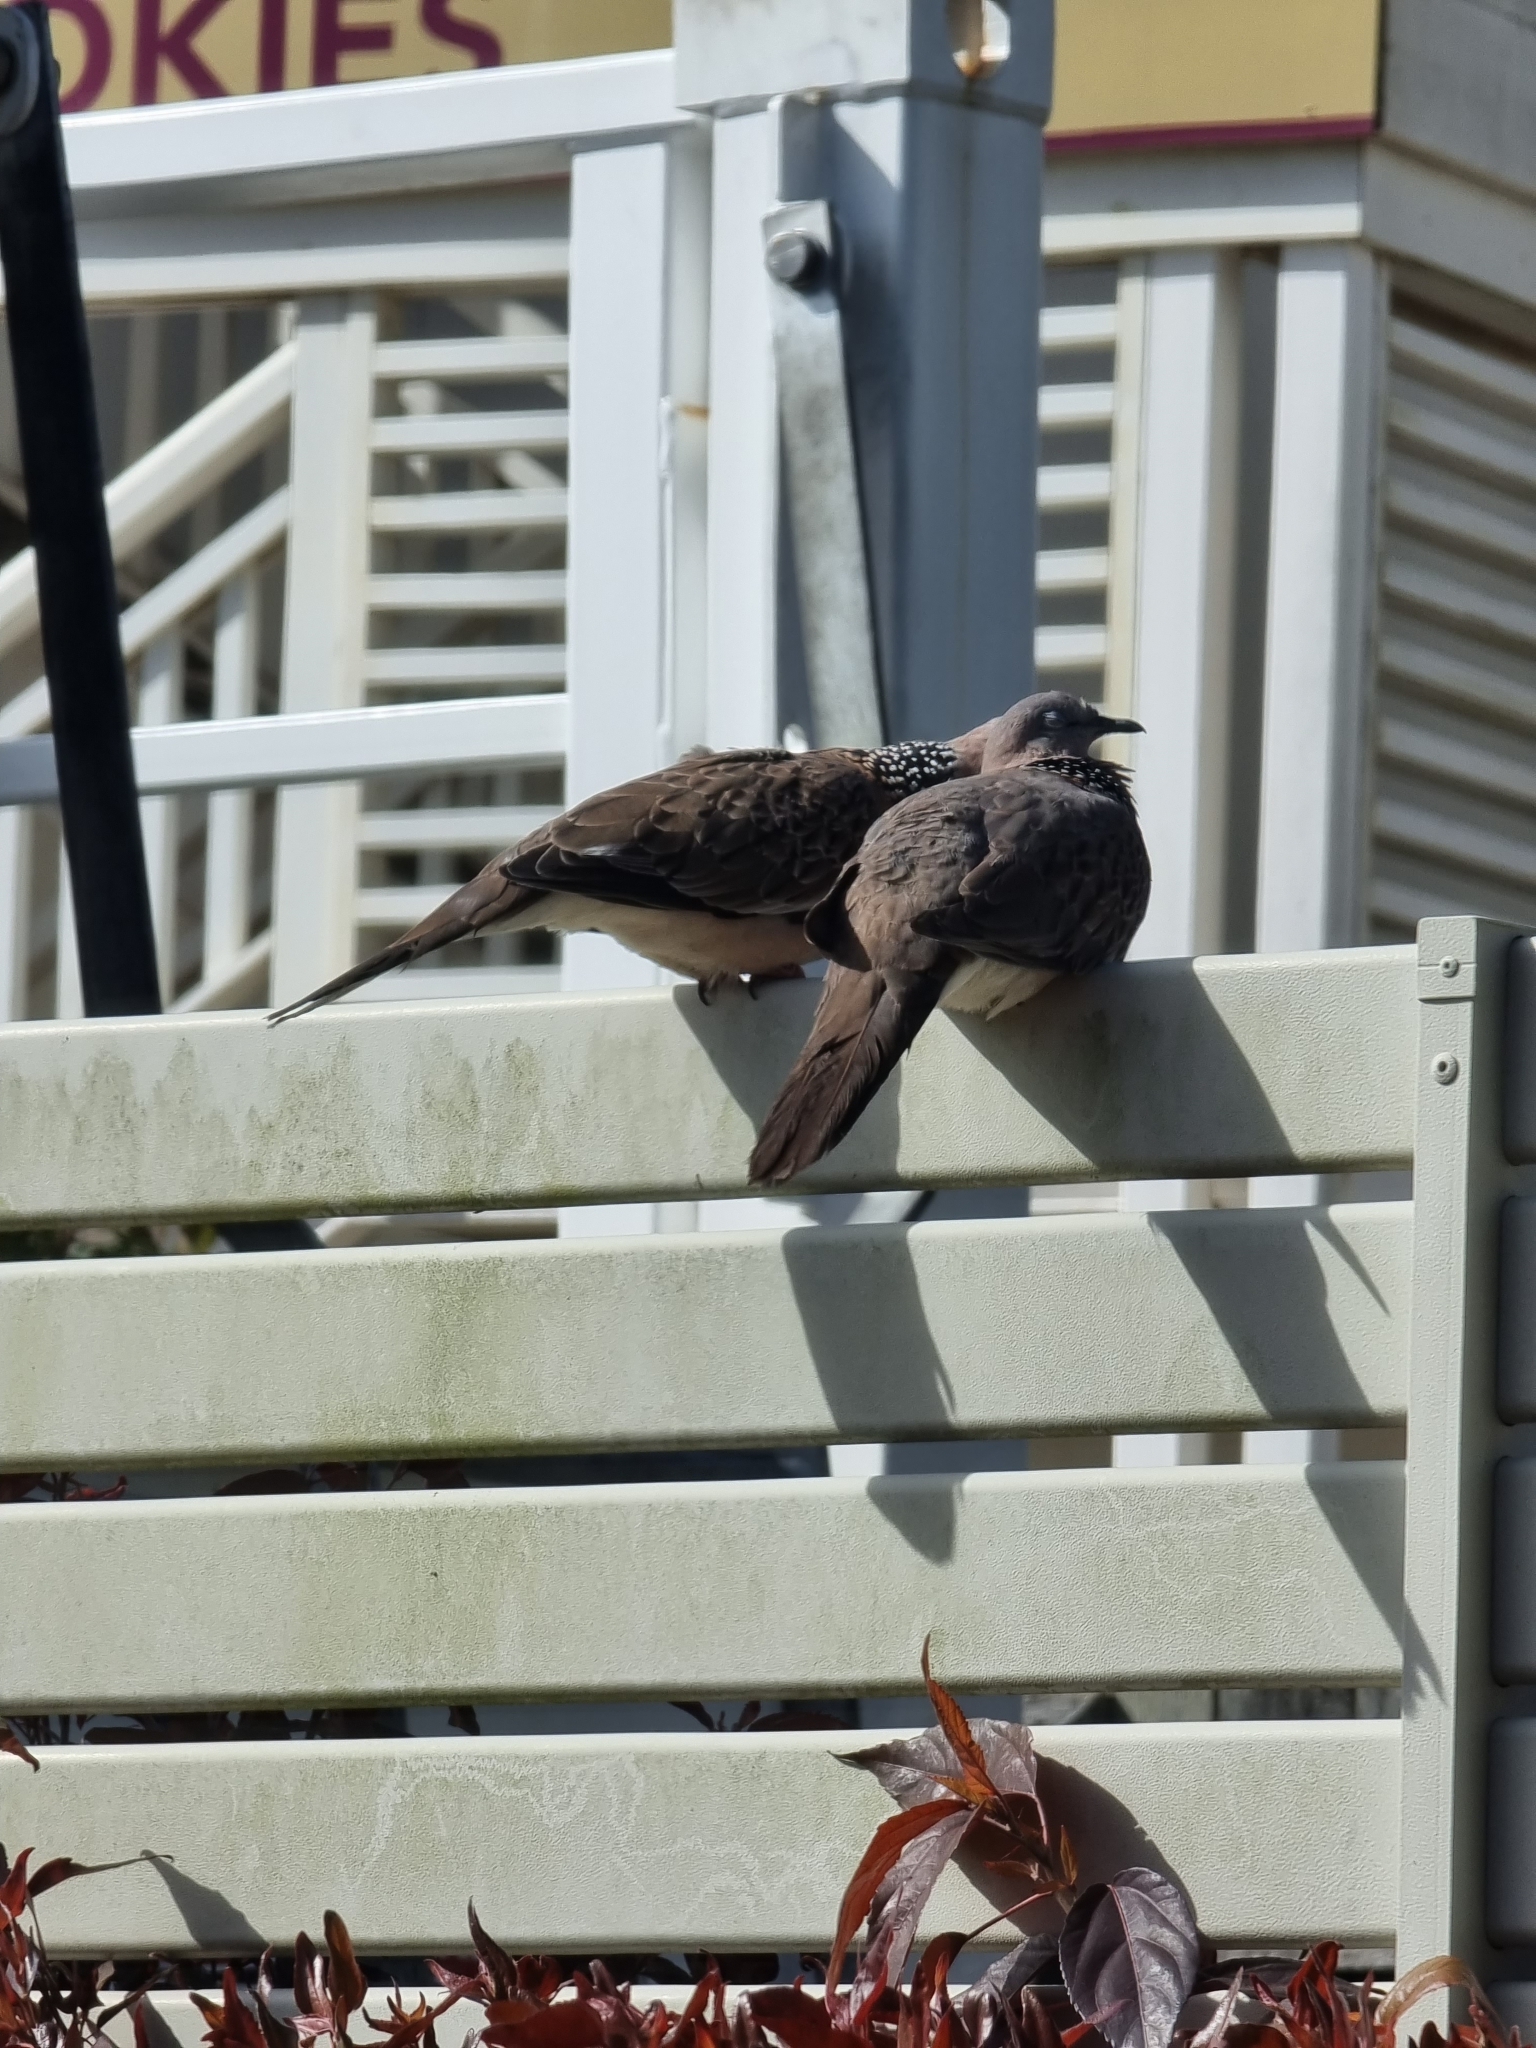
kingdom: Animalia
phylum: Chordata
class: Aves
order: Columbiformes
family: Columbidae
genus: Spilopelia
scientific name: Spilopelia chinensis
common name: Spotted dove
